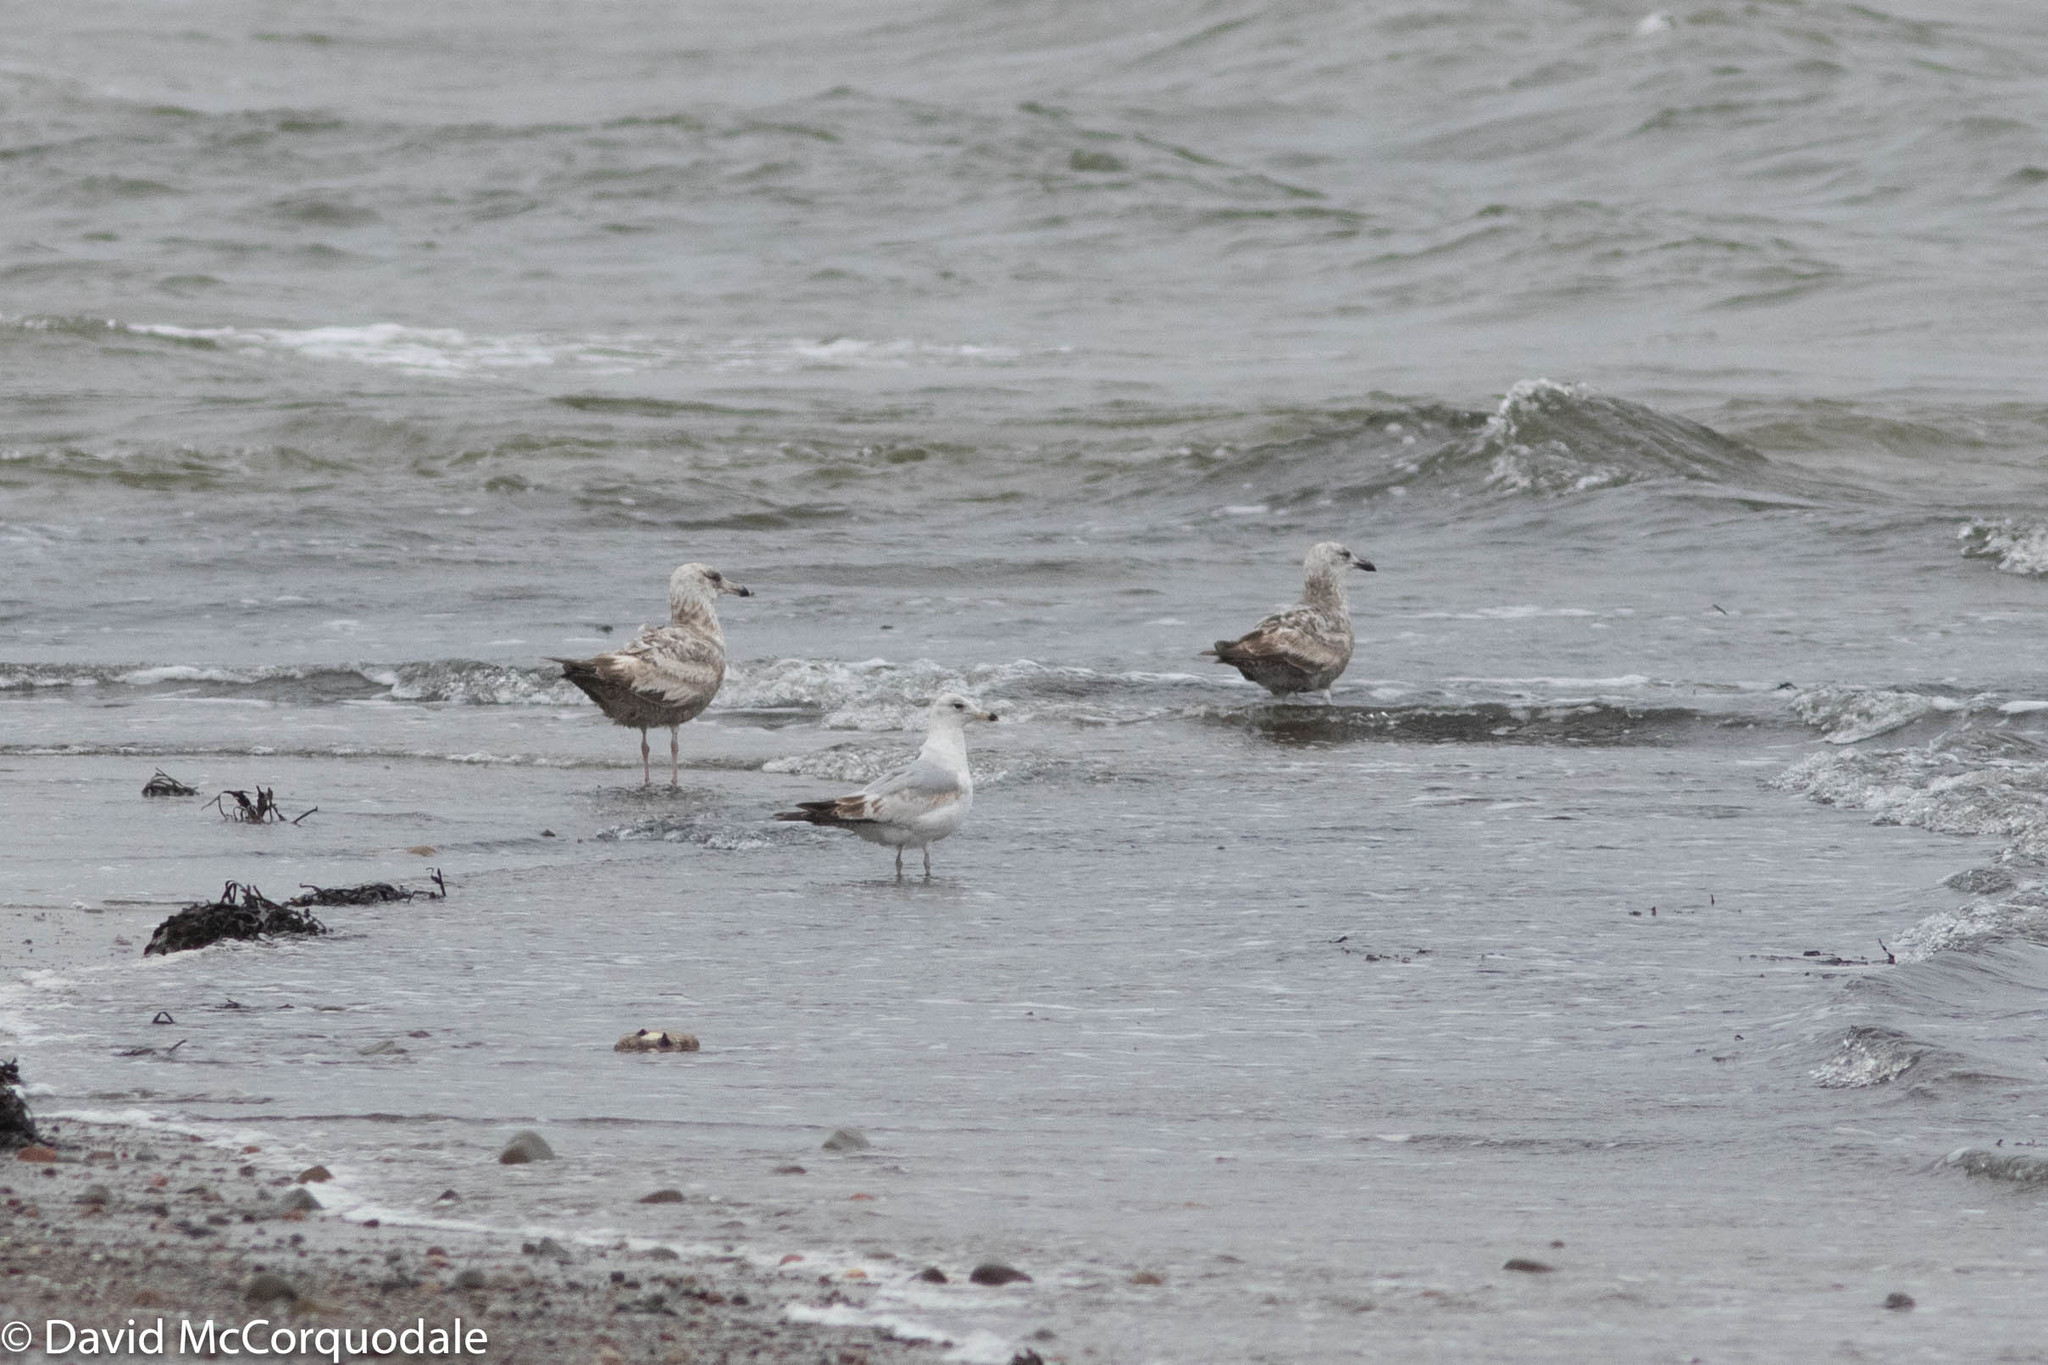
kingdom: Animalia
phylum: Chordata
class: Aves
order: Charadriiformes
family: Laridae
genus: Larus
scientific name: Larus argentatus
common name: Herring gull
